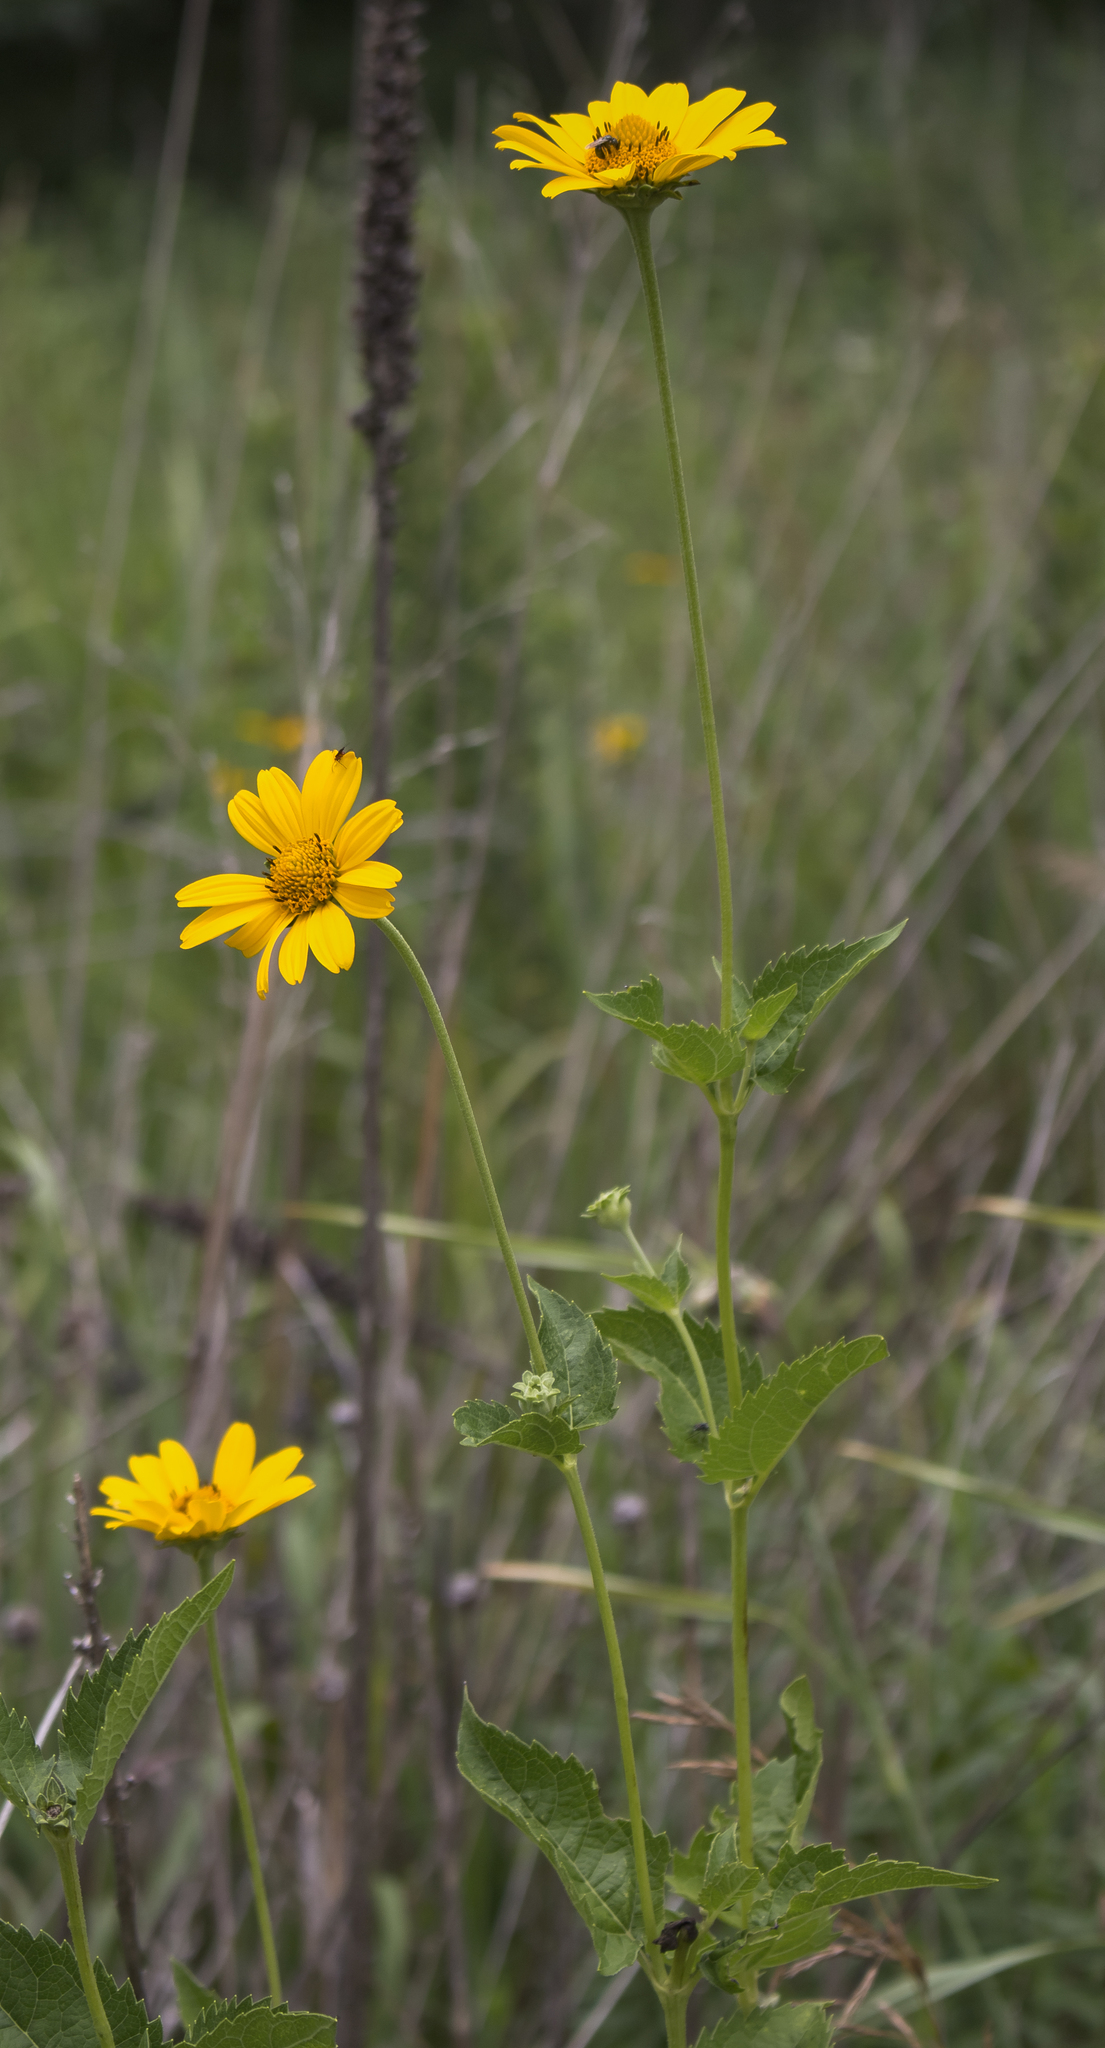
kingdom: Plantae
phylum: Tracheophyta
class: Magnoliopsida
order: Asterales
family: Asteraceae
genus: Heliopsis
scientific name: Heliopsis helianthoides
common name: False sunflower
